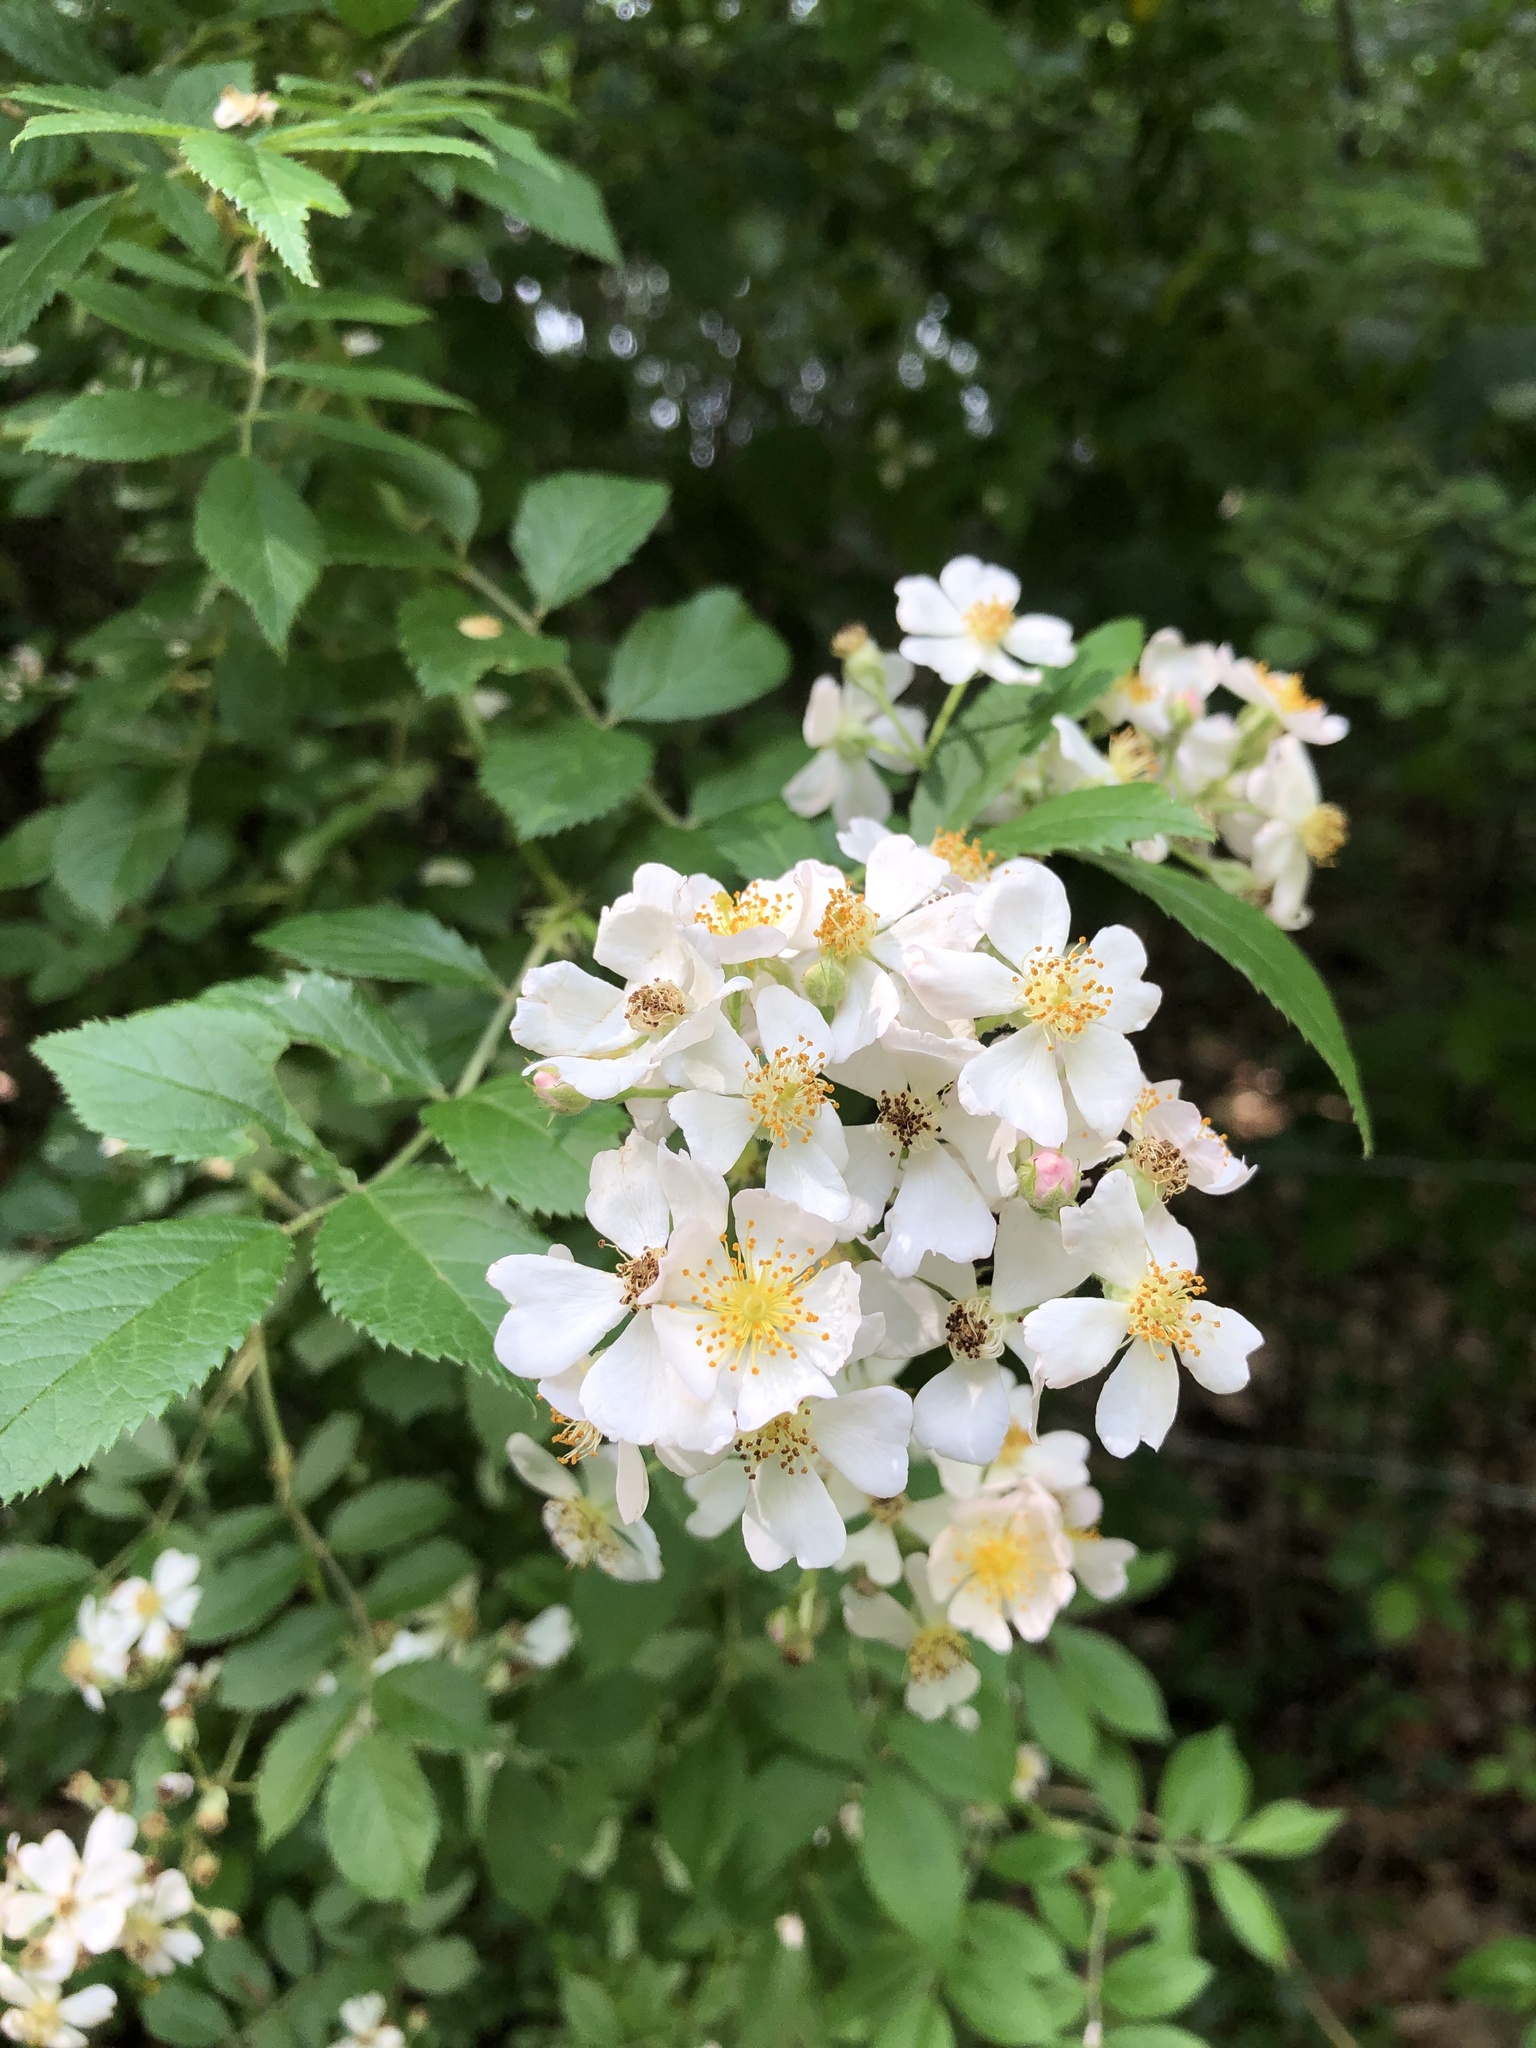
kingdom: Plantae
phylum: Tracheophyta
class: Magnoliopsida
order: Rosales
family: Rosaceae
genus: Rosa
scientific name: Rosa multiflora
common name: Multiflora rose
